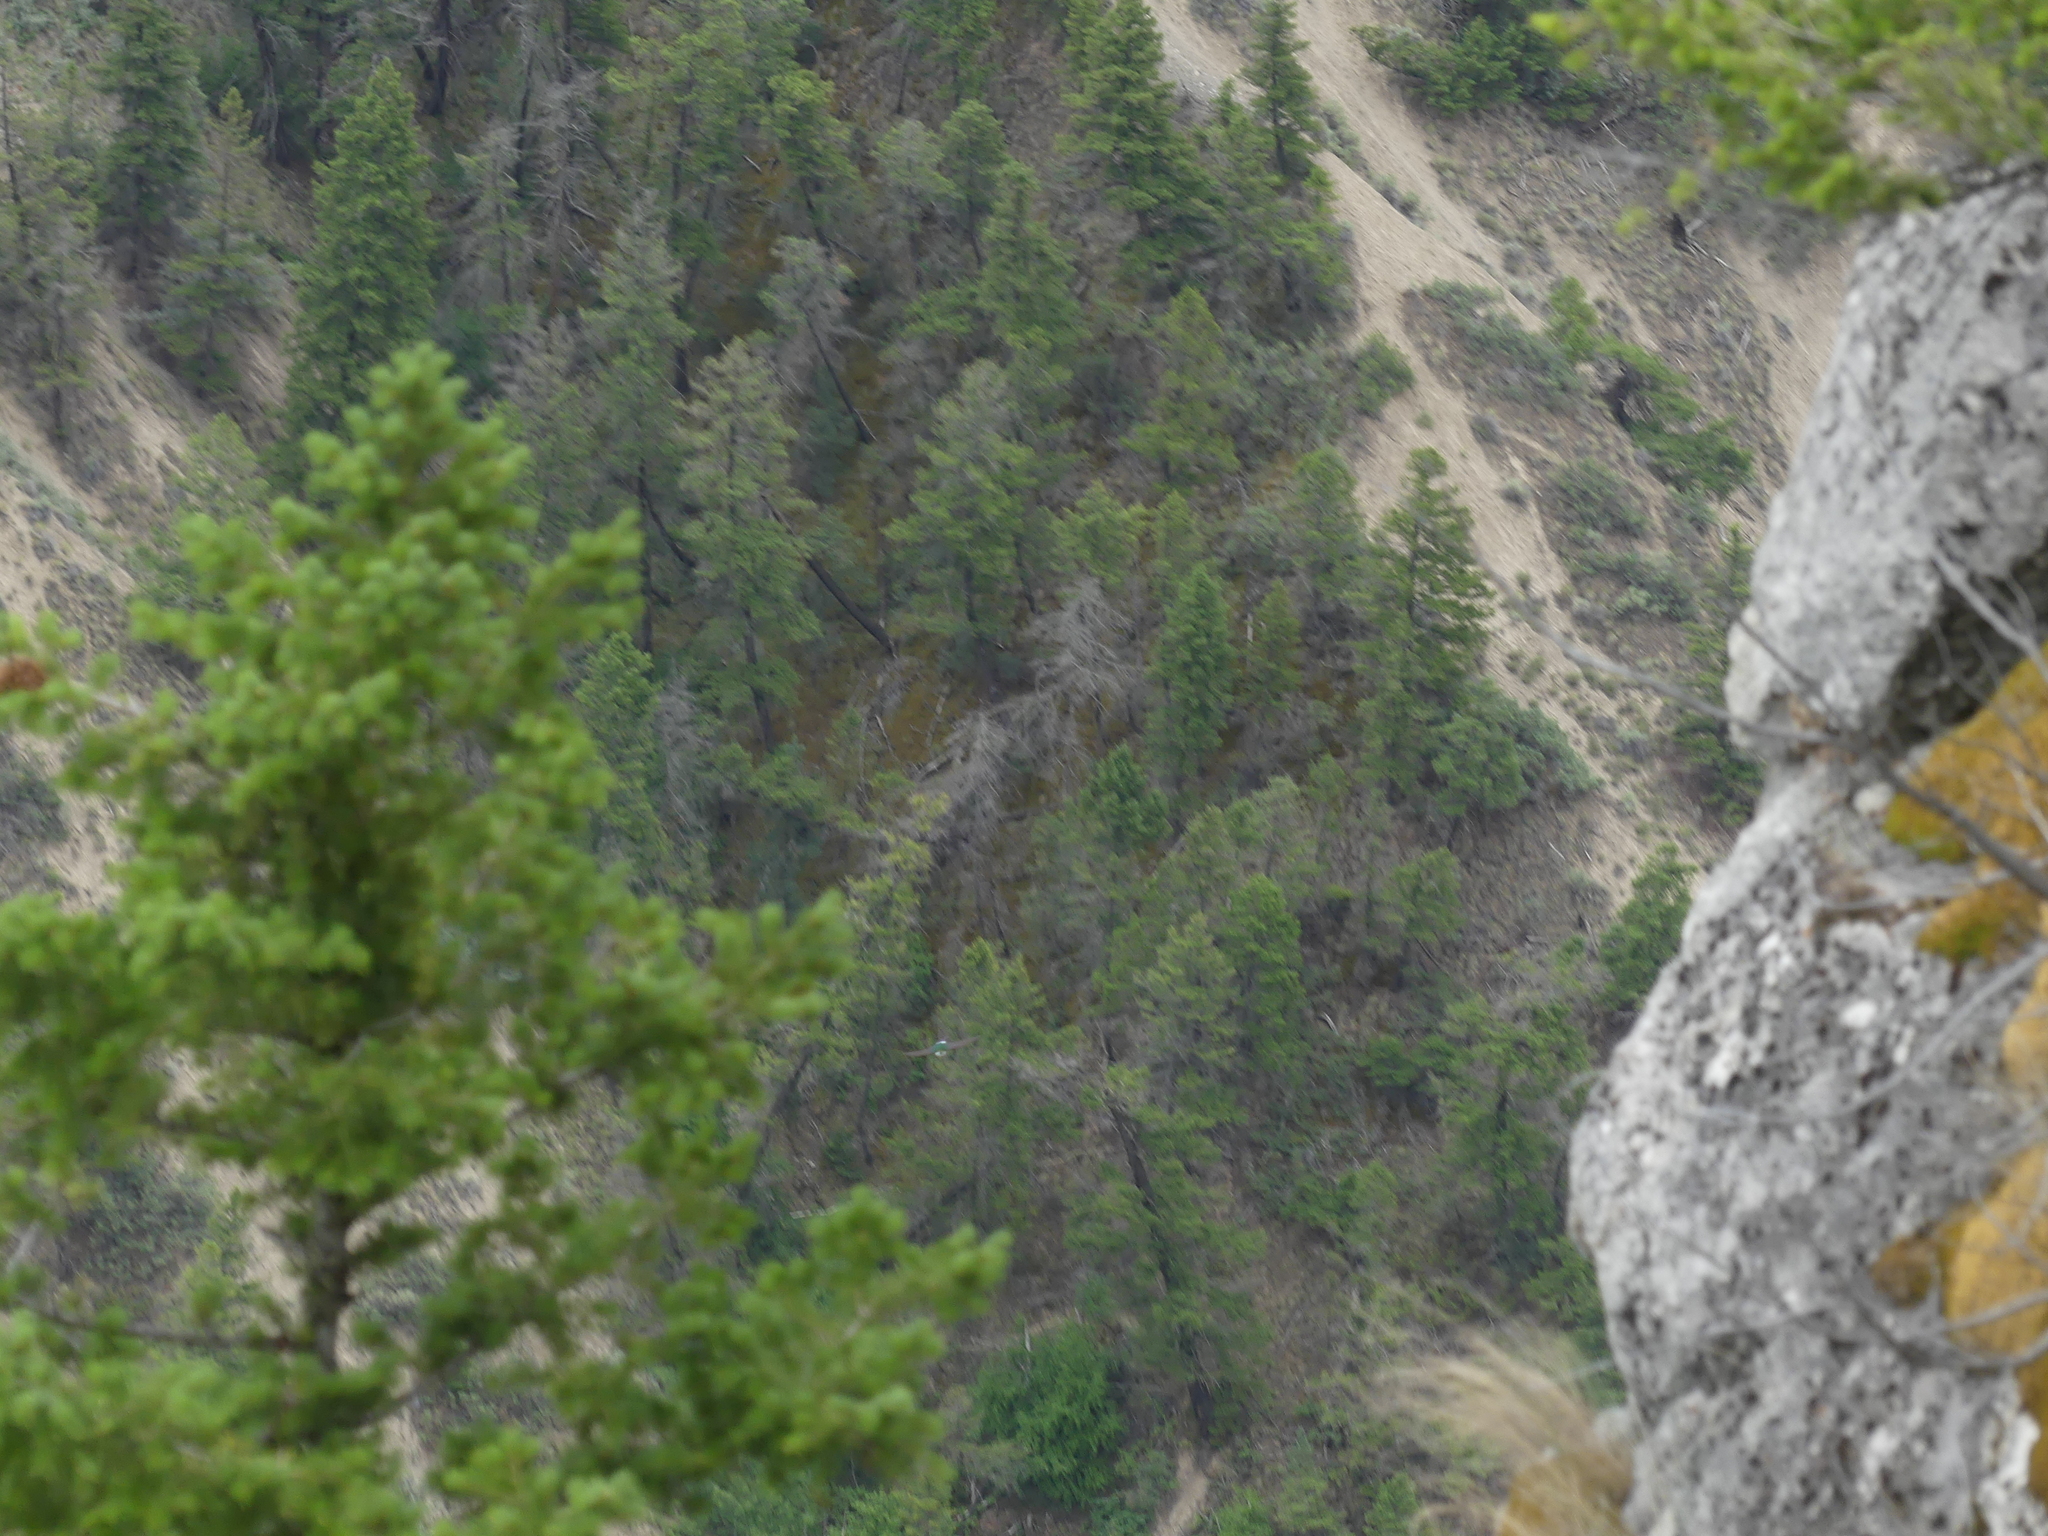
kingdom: Animalia
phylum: Chordata
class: Aves
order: Passeriformes
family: Hirundinidae
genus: Tachycineta
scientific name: Tachycineta thalassina
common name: Violet-green swallow
